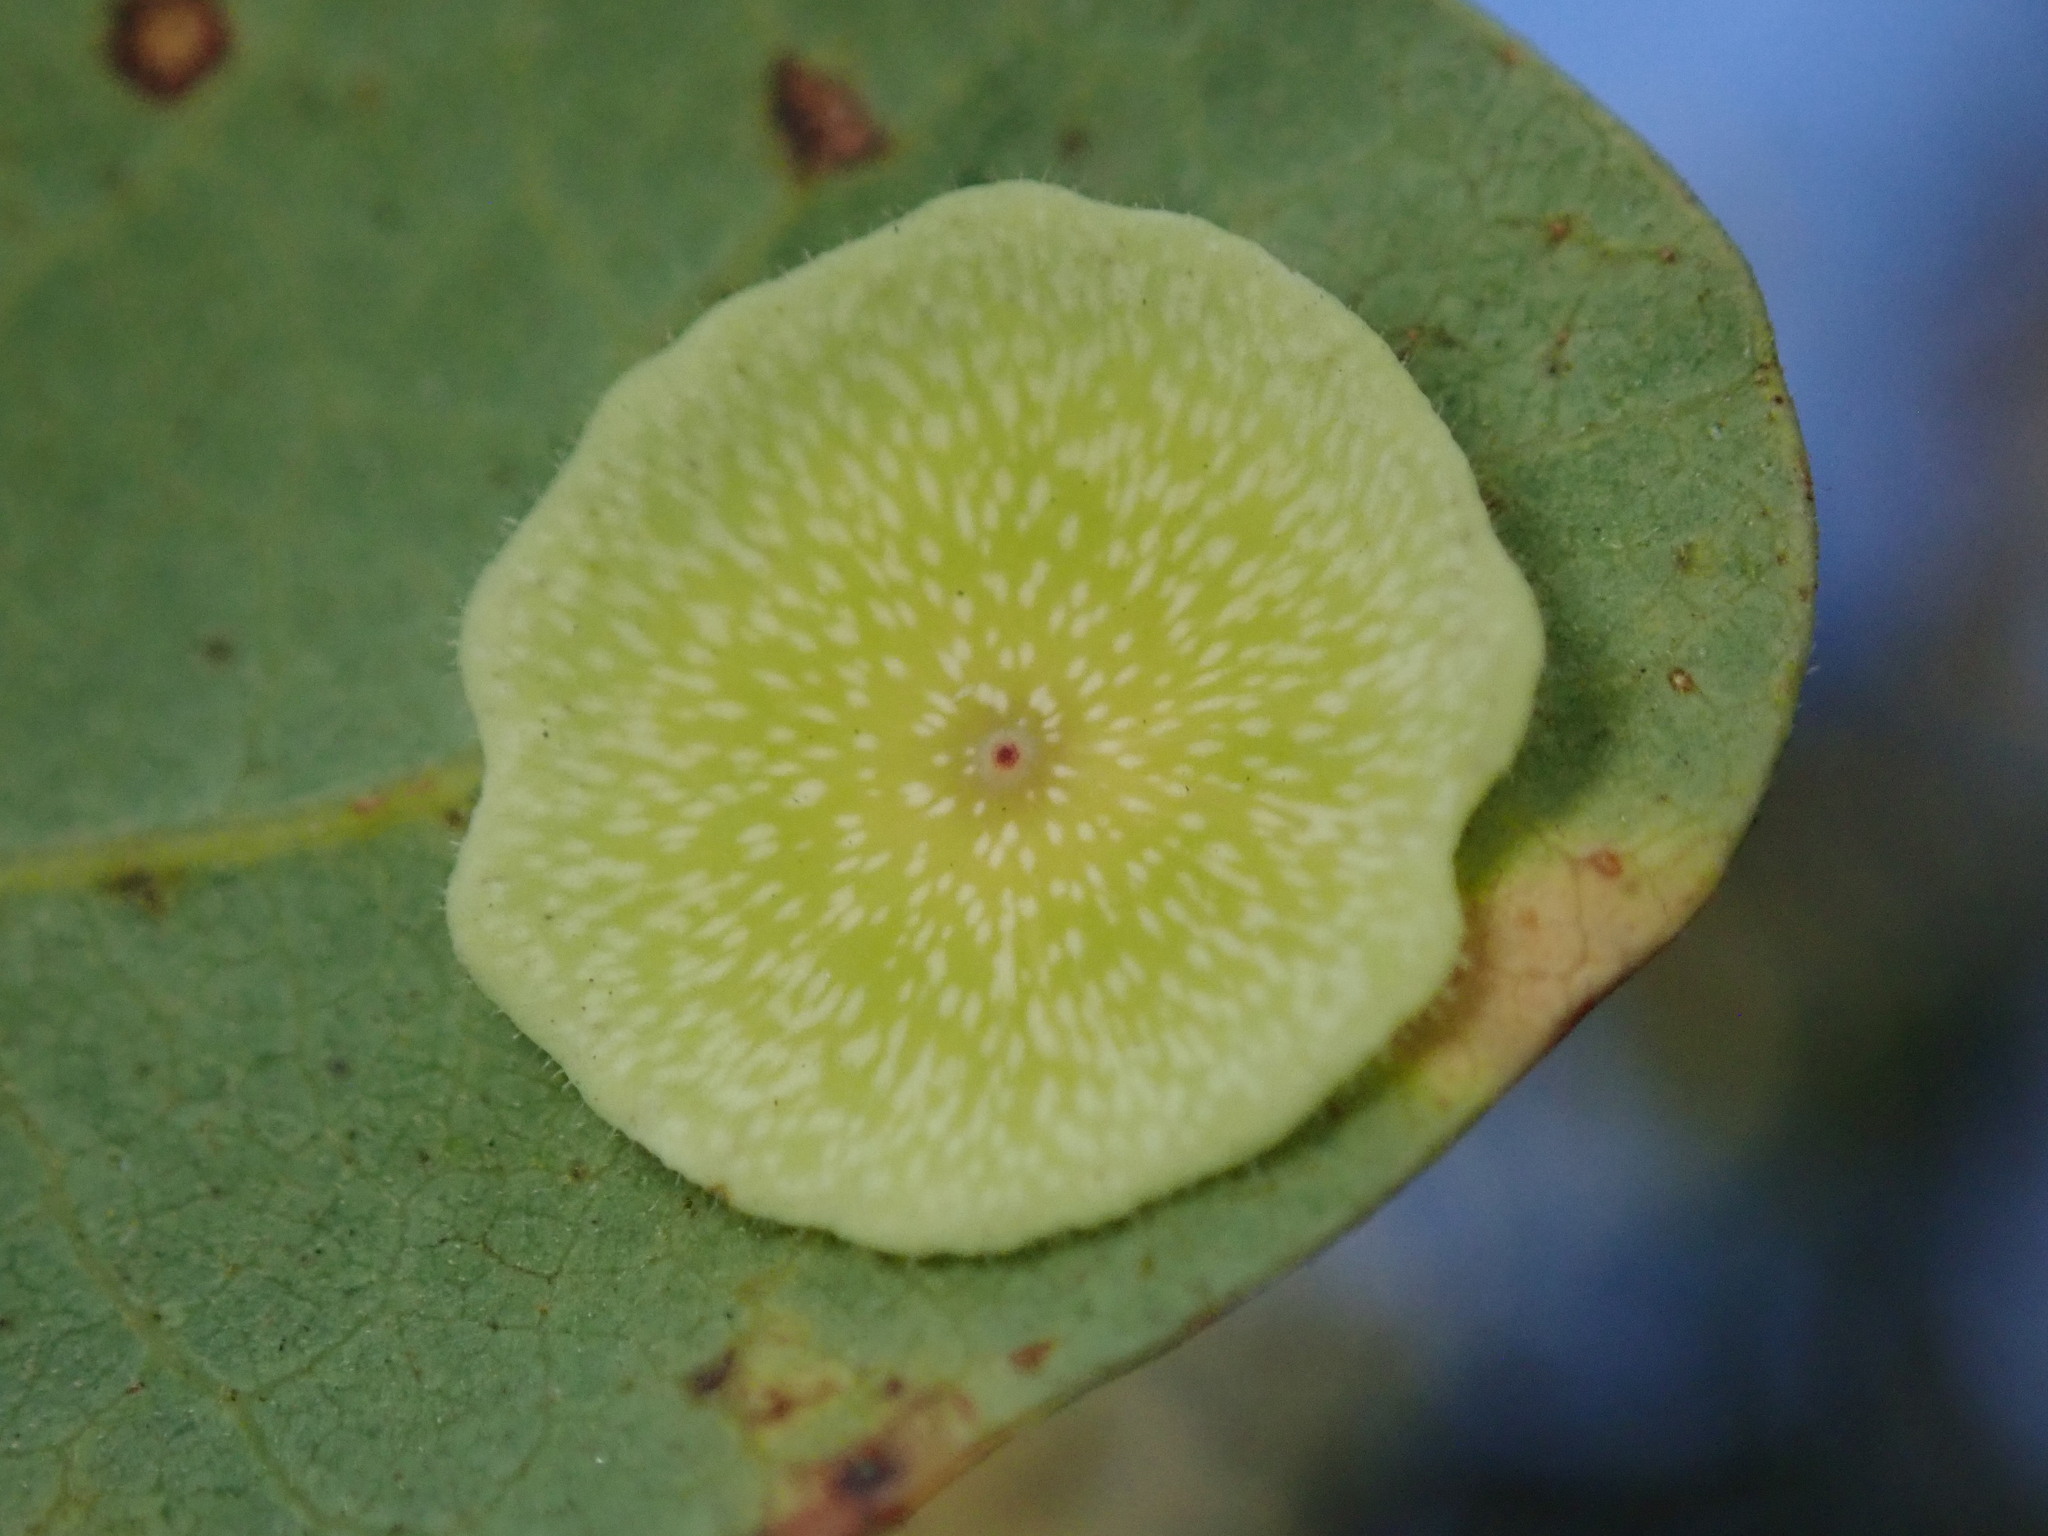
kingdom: Animalia
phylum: Arthropoda
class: Insecta
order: Hymenoptera
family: Cynipidae
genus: Andricus
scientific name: Andricus
